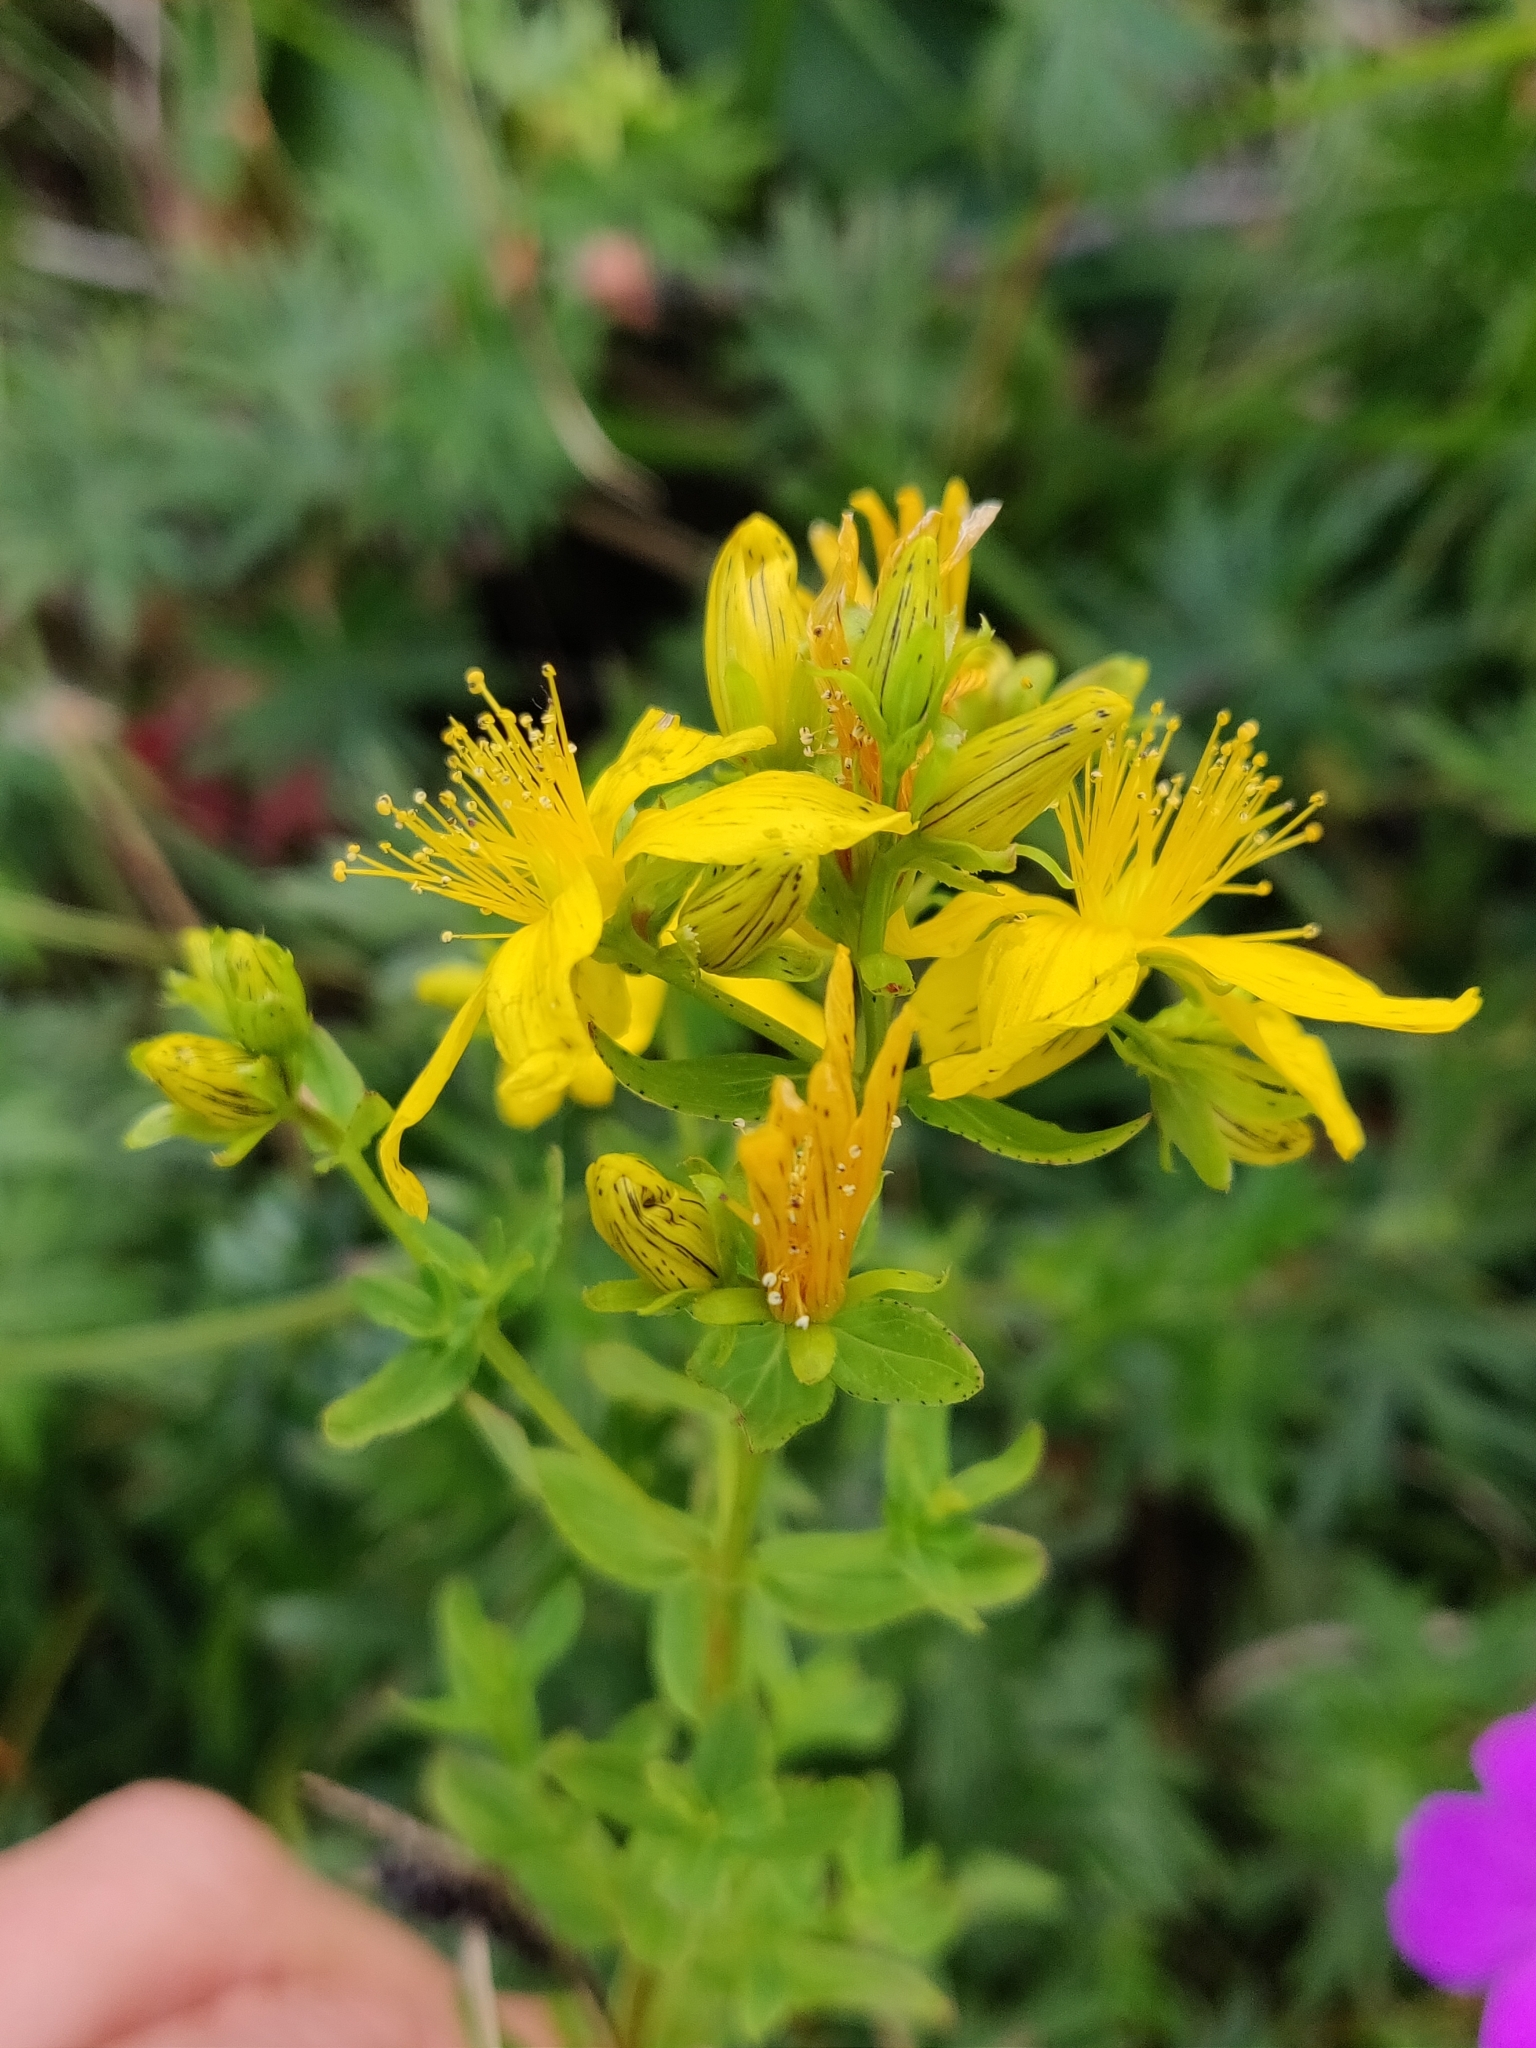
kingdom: Plantae
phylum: Tracheophyta
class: Magnoliopsida
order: Malpighiales
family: Hypericaceae
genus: Hypericum
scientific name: Hypericum maculatum
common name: Imperforate st. john's-wort
